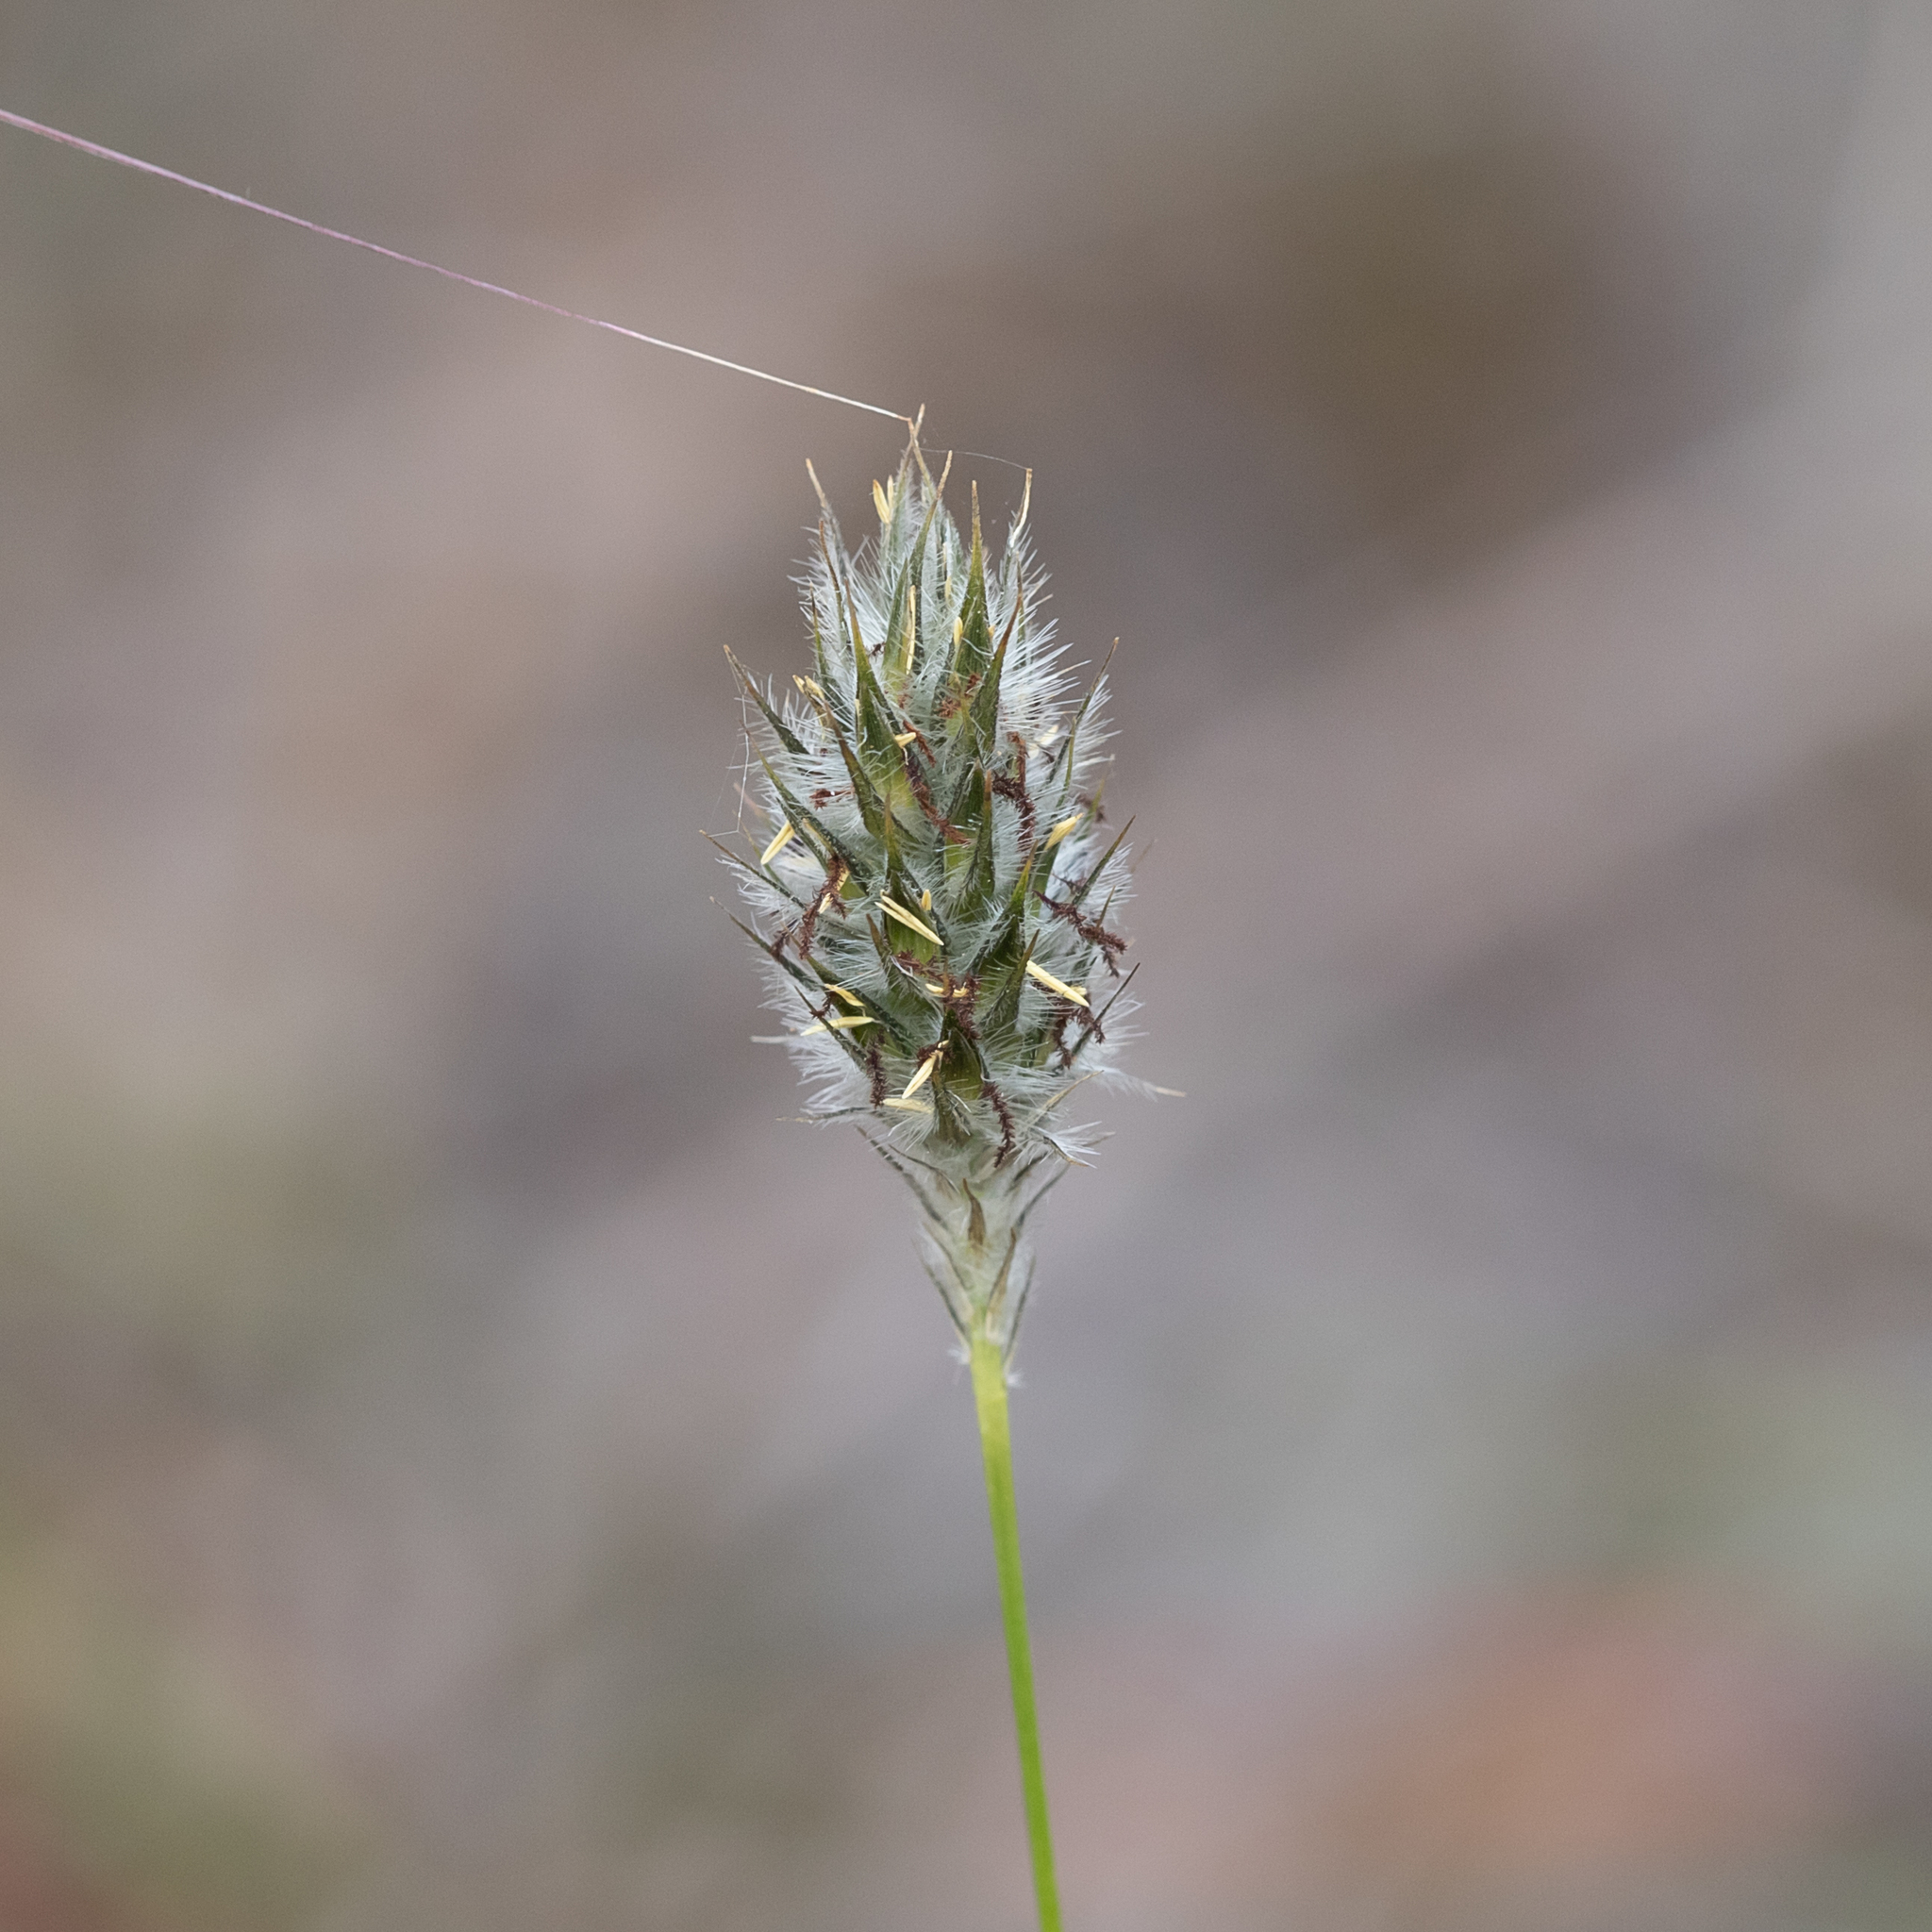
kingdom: Plantae
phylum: Tracheophyta
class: Liliopsida
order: Poales
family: Poaceae
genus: Neurachne
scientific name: Neurachne alopecuroidea
